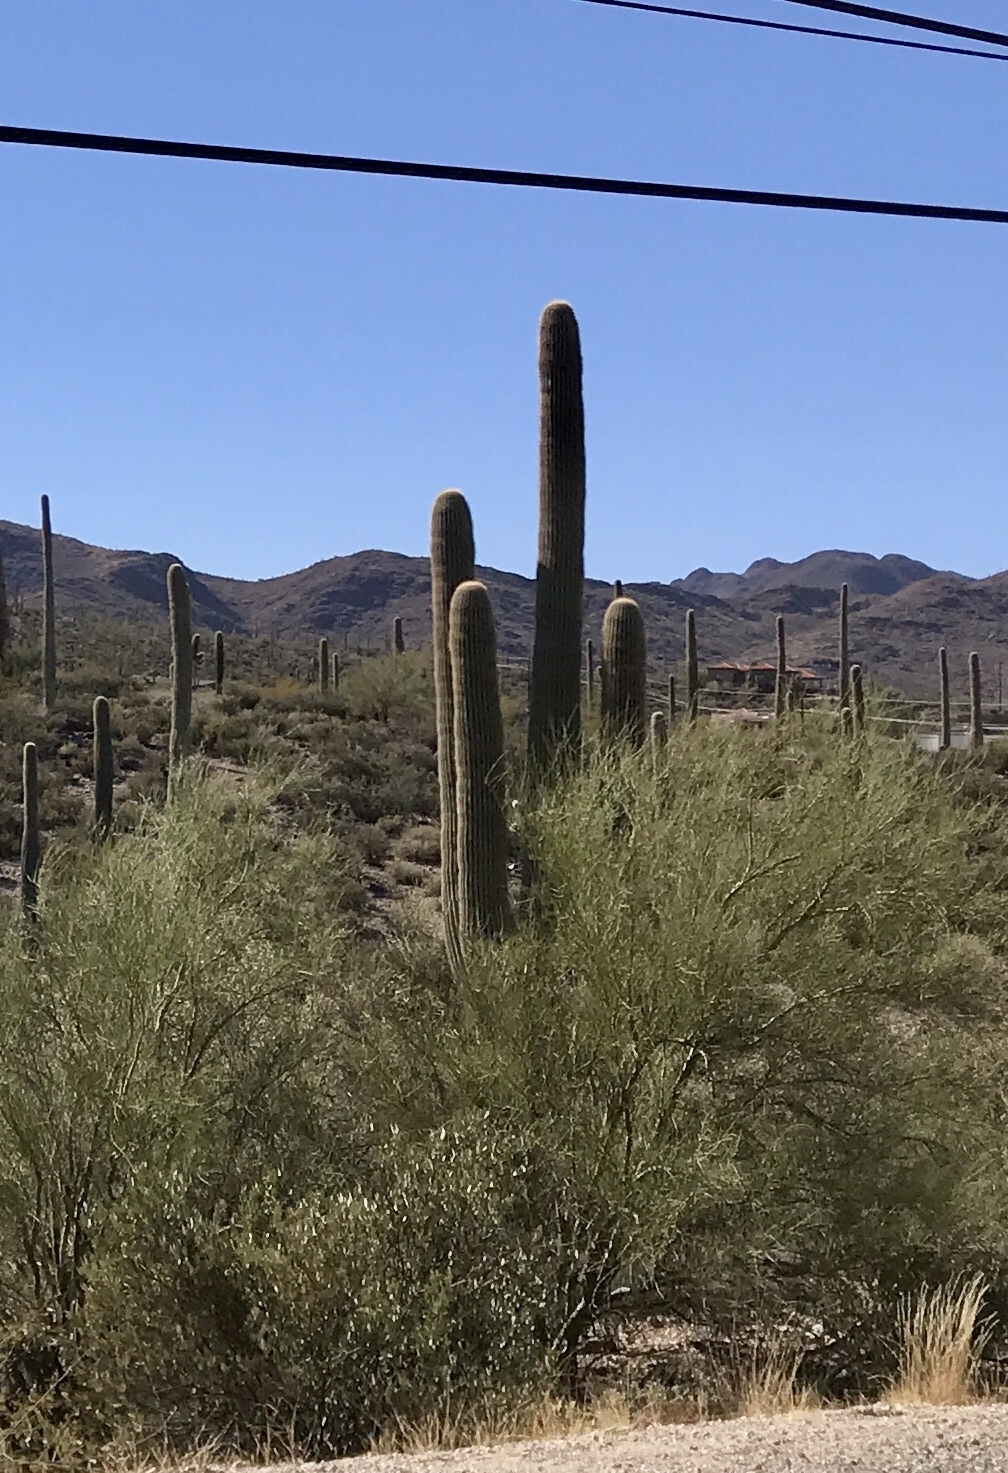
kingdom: Plantae
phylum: Tracheophyta
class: Magnoliopsida
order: Caryophyllales
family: Cactaceae
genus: Carnegiea
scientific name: Carnegiea gigantea
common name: Saguaro
